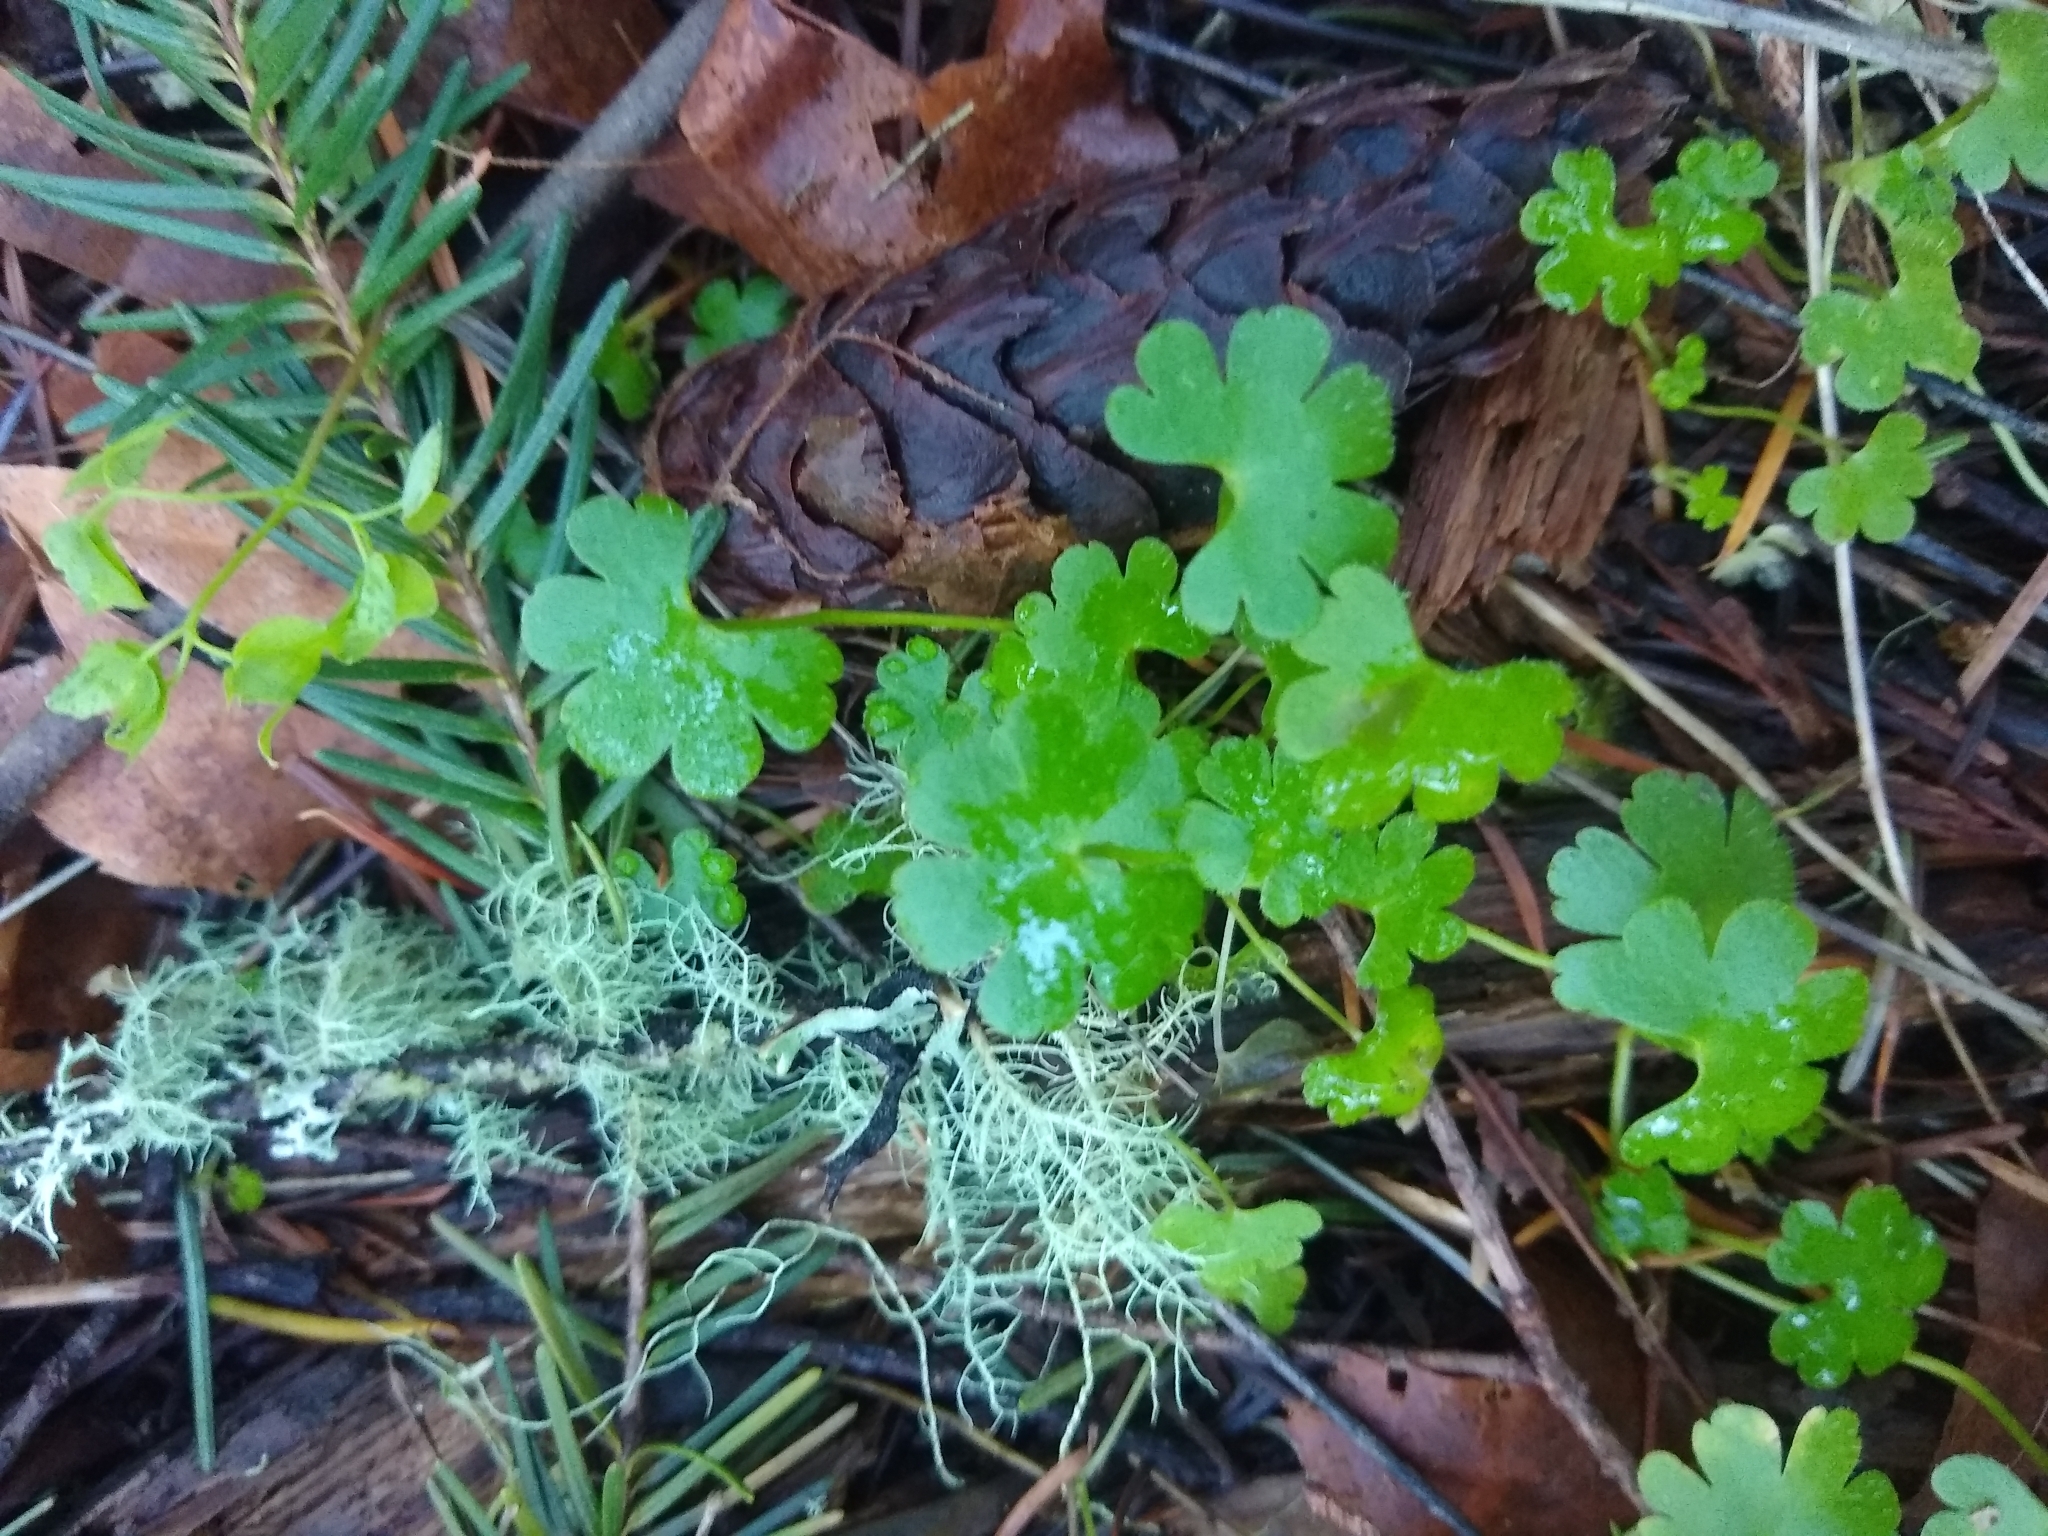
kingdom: Plantae
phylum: Tracheophyta
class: Magnoliopsida
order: Geraniales
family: Geraniaceae
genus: Geranium
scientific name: Geranium lucidum
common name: Shining crane's-bill
